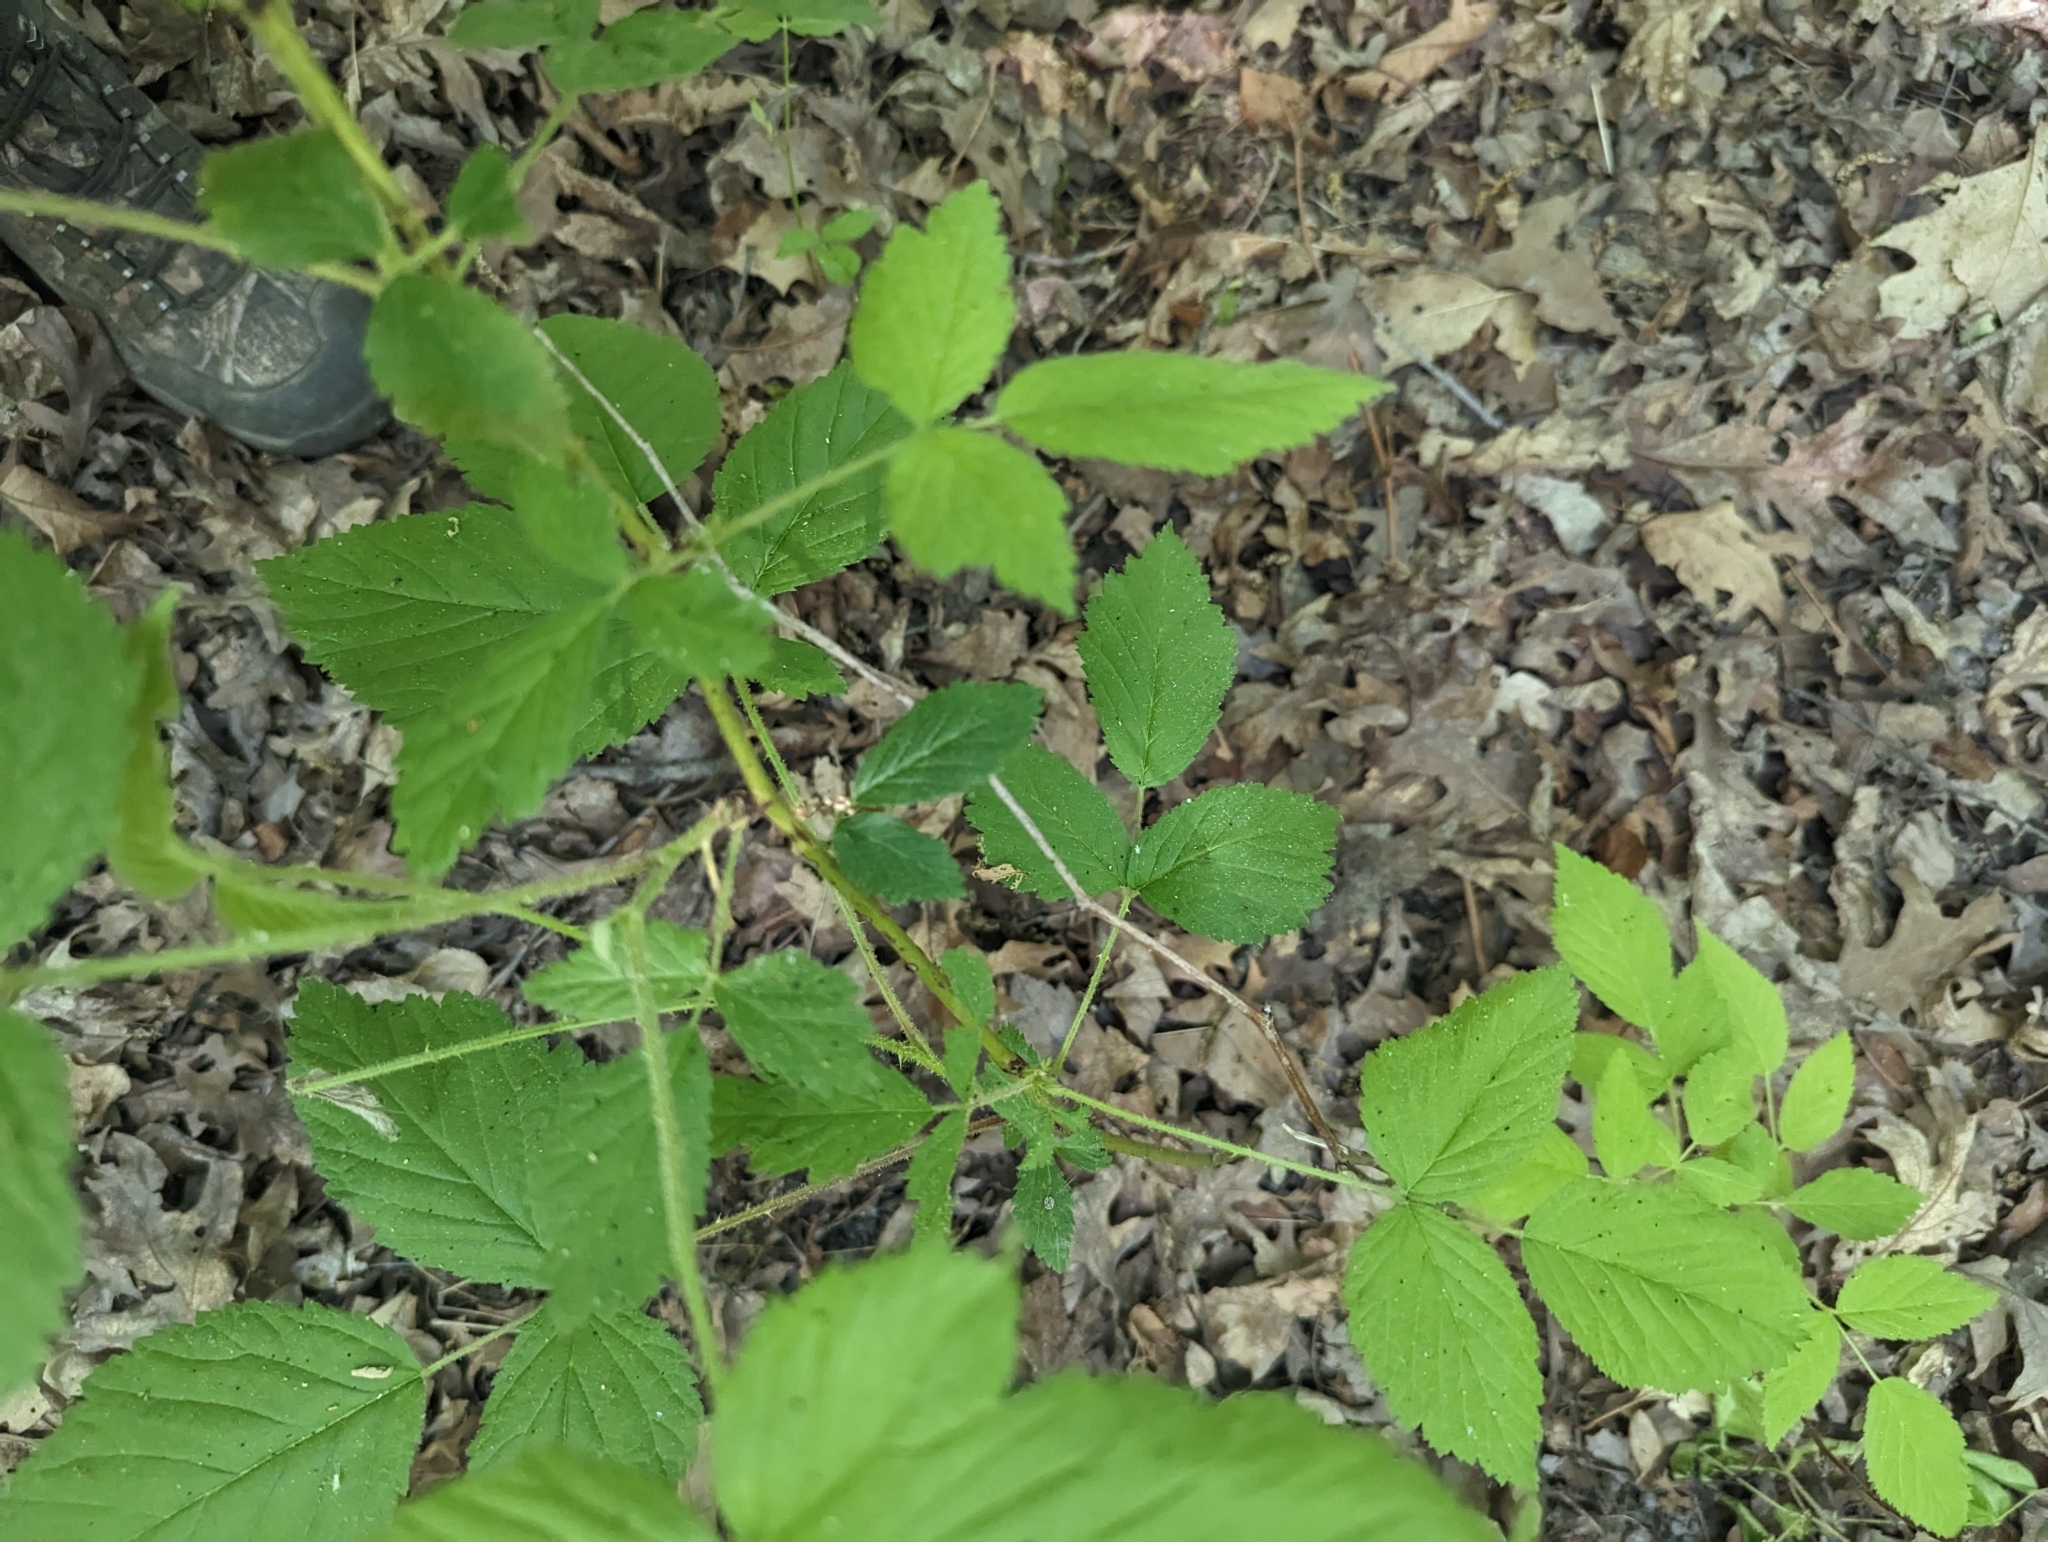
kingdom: Plantae
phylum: Tracheophyta
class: Magnoliopsida
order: Rosales
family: Rosaceae
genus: Rubus
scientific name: Rubus allegheniensis
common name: Allegheny blackberry
